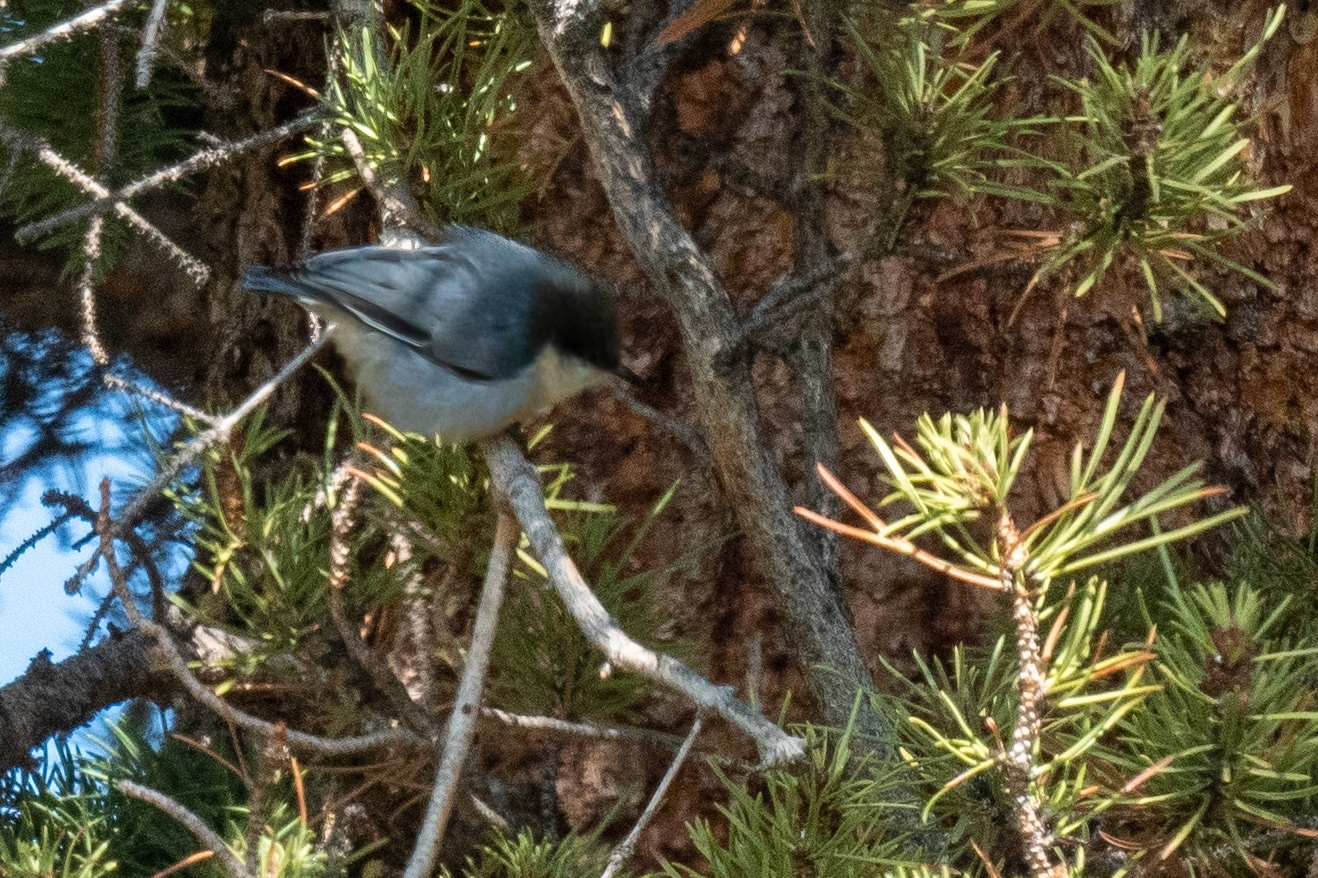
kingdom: Animalia
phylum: Chordata
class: Aves
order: Passeriformes
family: Sittidae
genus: Sitta
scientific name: Sitta pygmaea
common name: Pygmy nuthatch
